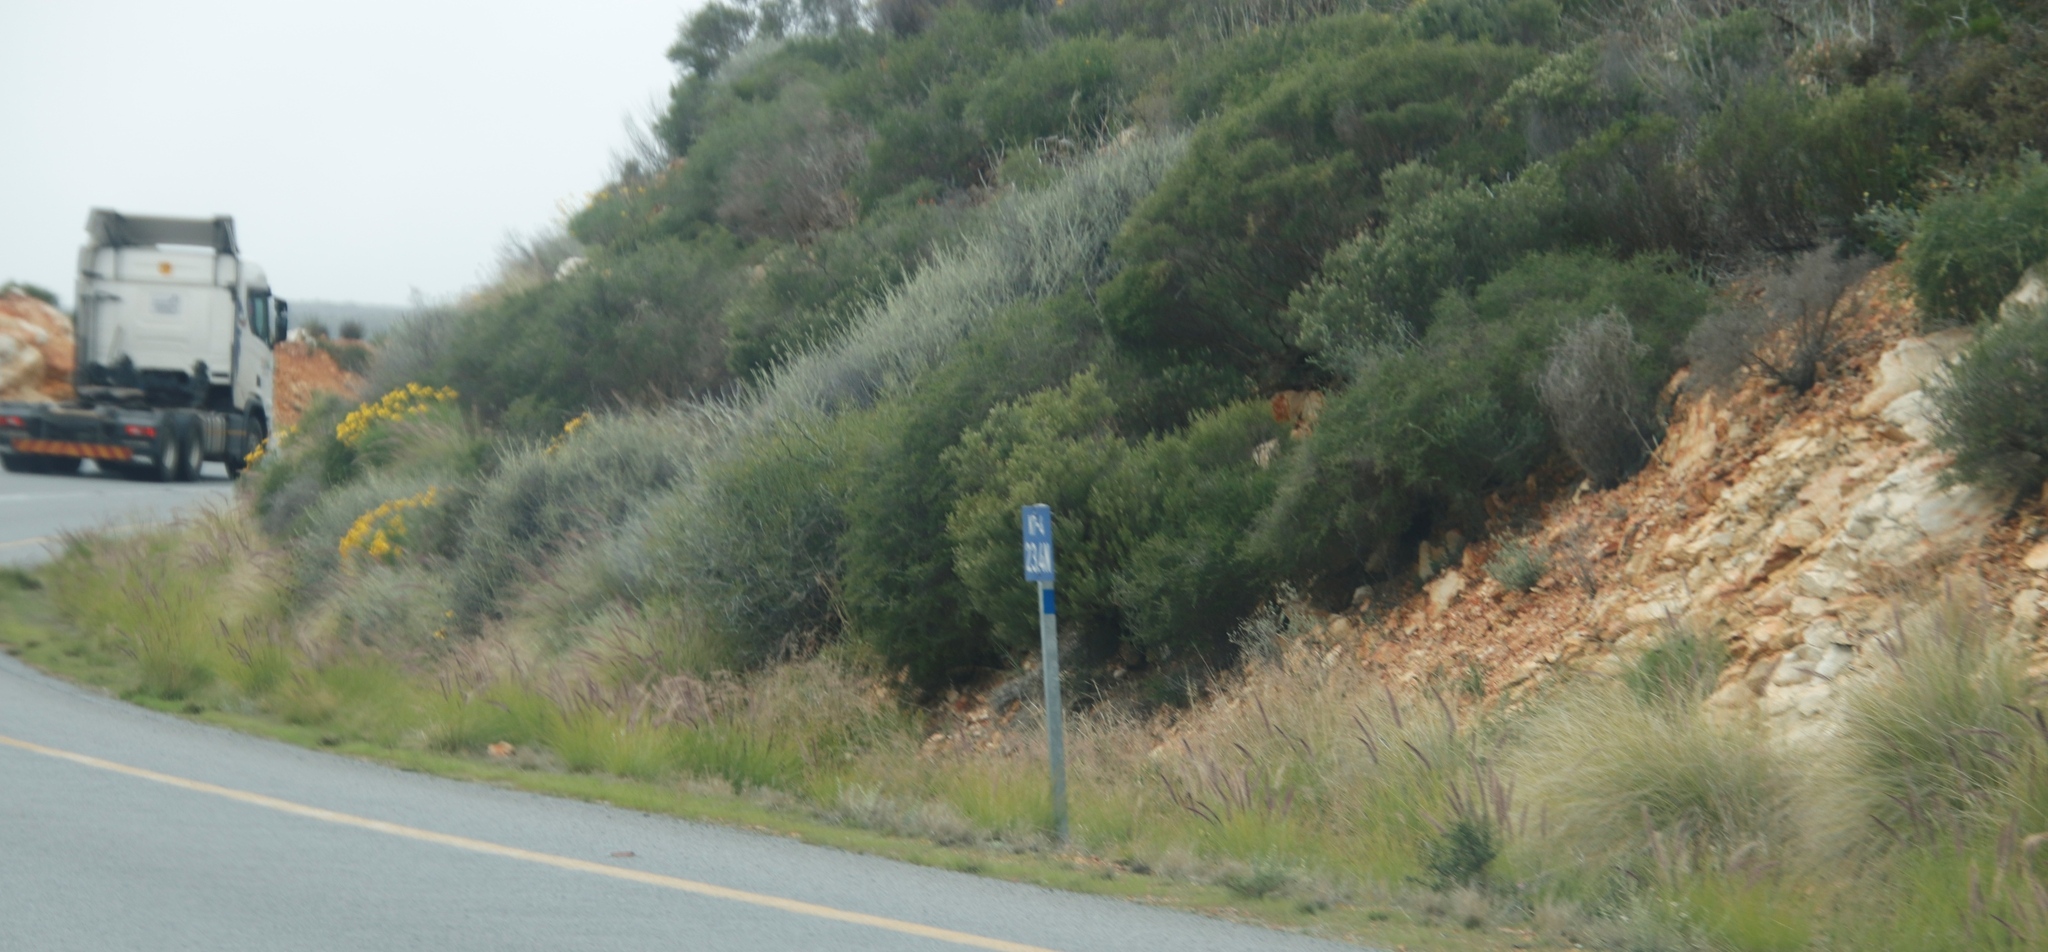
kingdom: Plantae
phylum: Tracheophyta
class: Liliopsida
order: Poales
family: Poaceae
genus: Cenchrus
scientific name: Cenchrus setaceus
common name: Crimson fountaingrass
